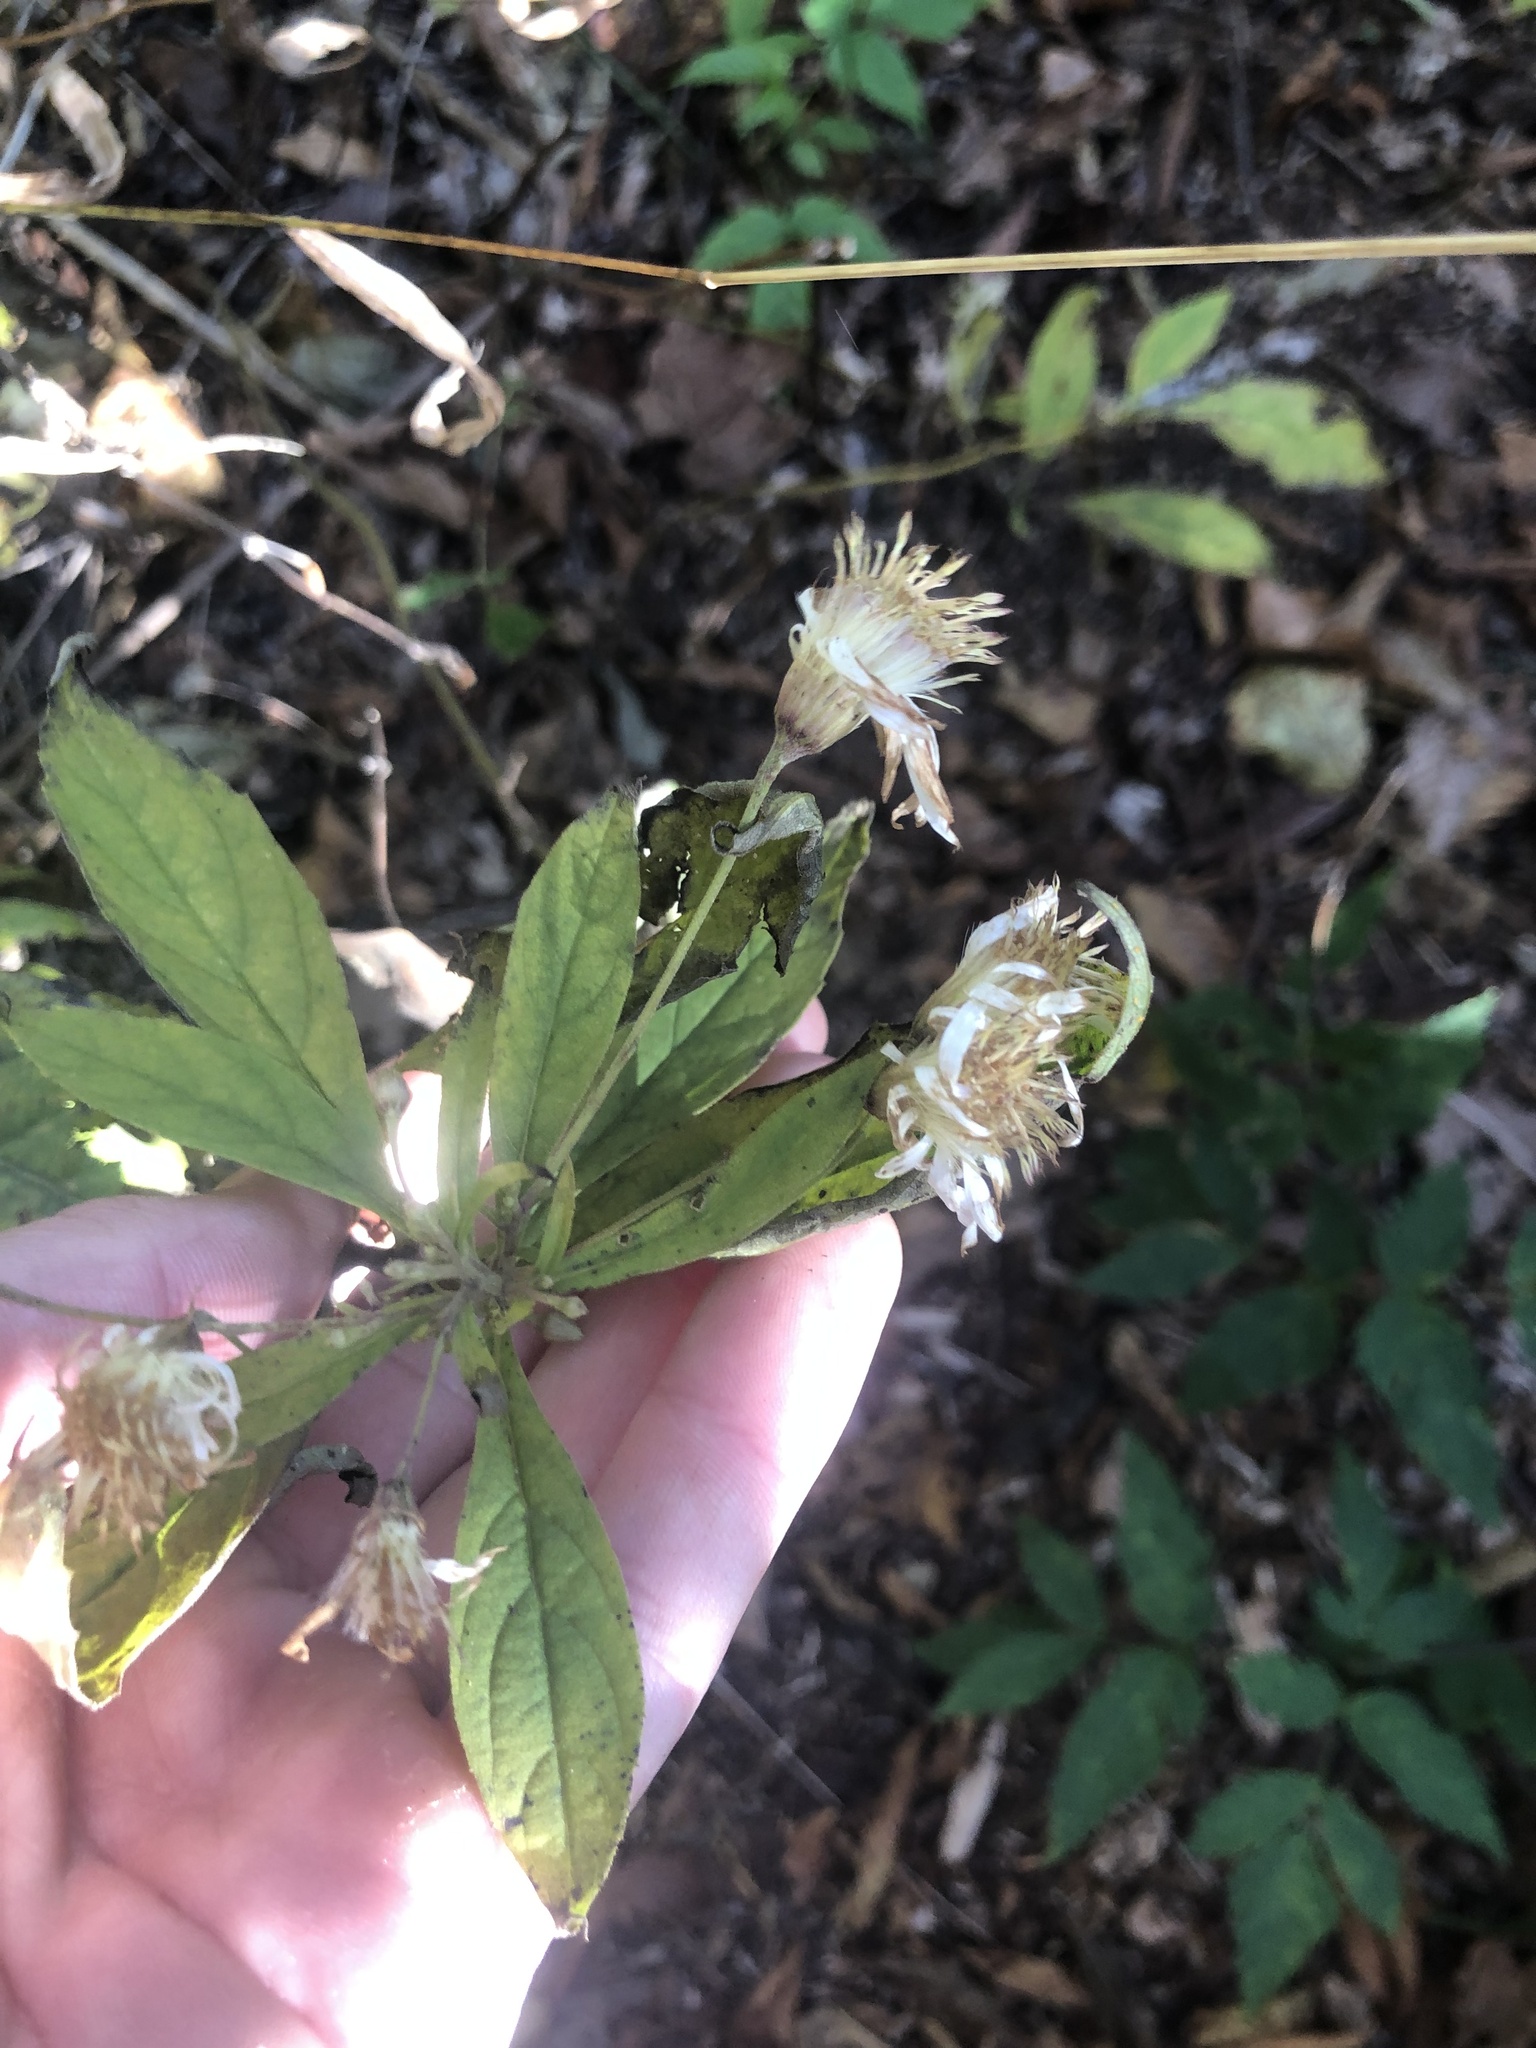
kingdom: Plantae
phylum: Tracheophyta
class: Magnoliopsida
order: Asterales
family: Asteraceae
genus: Oclemena
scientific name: Oclemena acuminata
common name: Mountain aster
